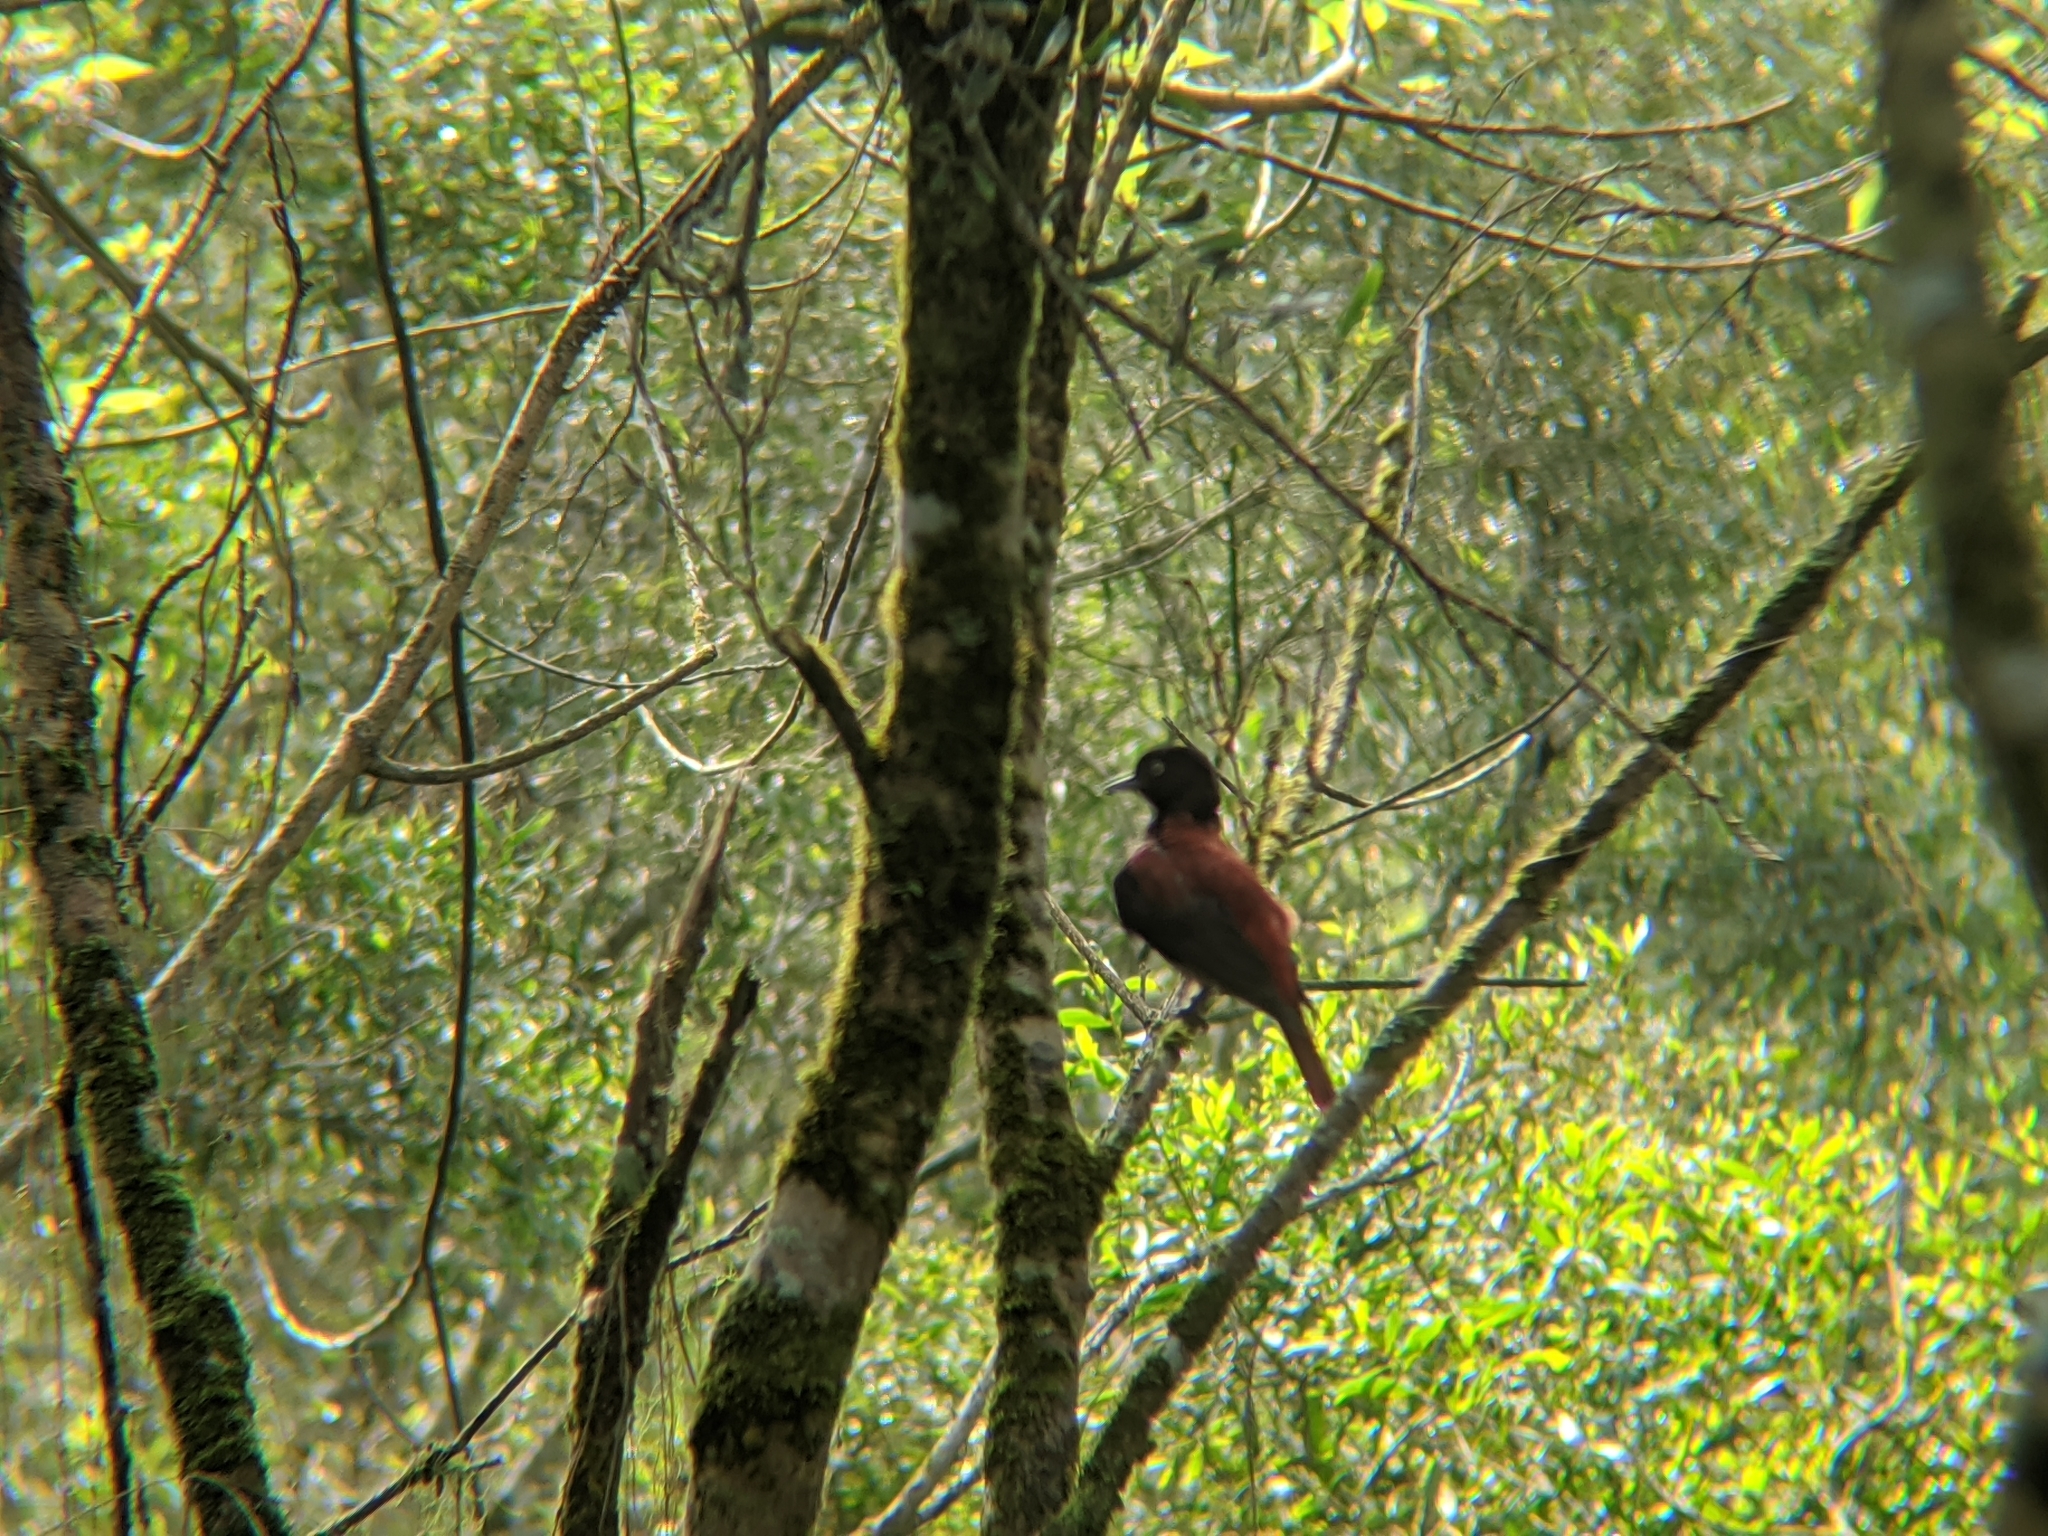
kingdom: Animalia
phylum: Chordata
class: Aves
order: Passeriformes
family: Oriolidae
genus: Oriolus
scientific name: Oriolus traillii
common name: Maroon oriole
